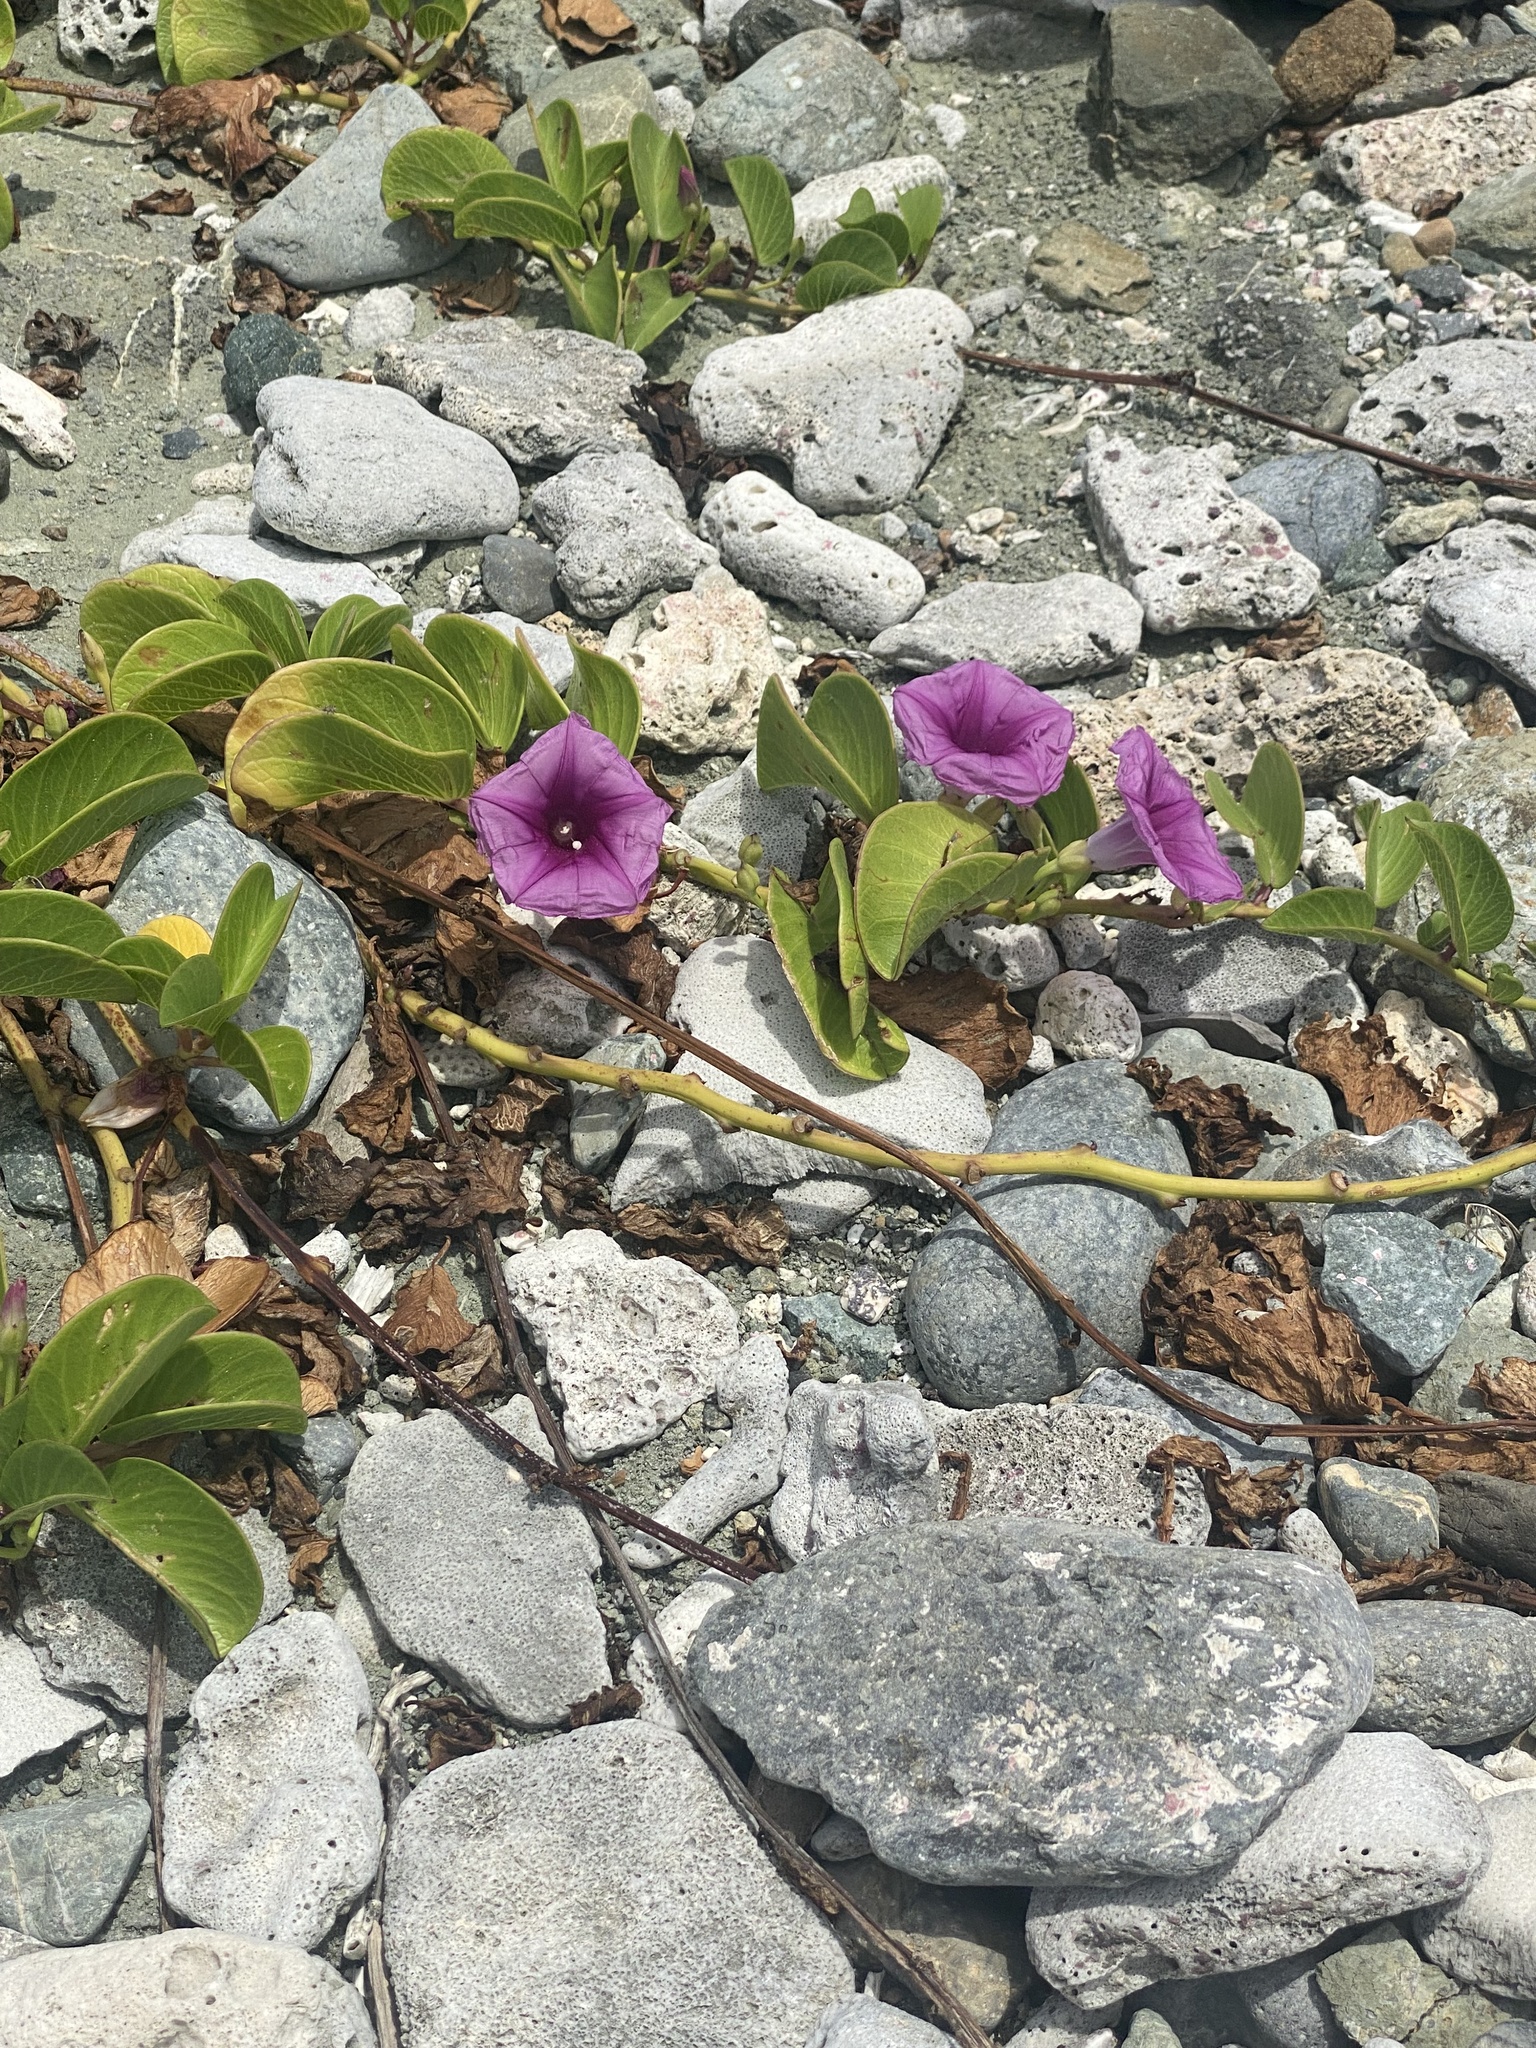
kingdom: Plantae
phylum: Tracheophyta
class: Magnoliopsida
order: Solanales
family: Convolvulaceae
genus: Ipomoea
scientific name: Ipomoea pes-caprae
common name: Beach morning glory
